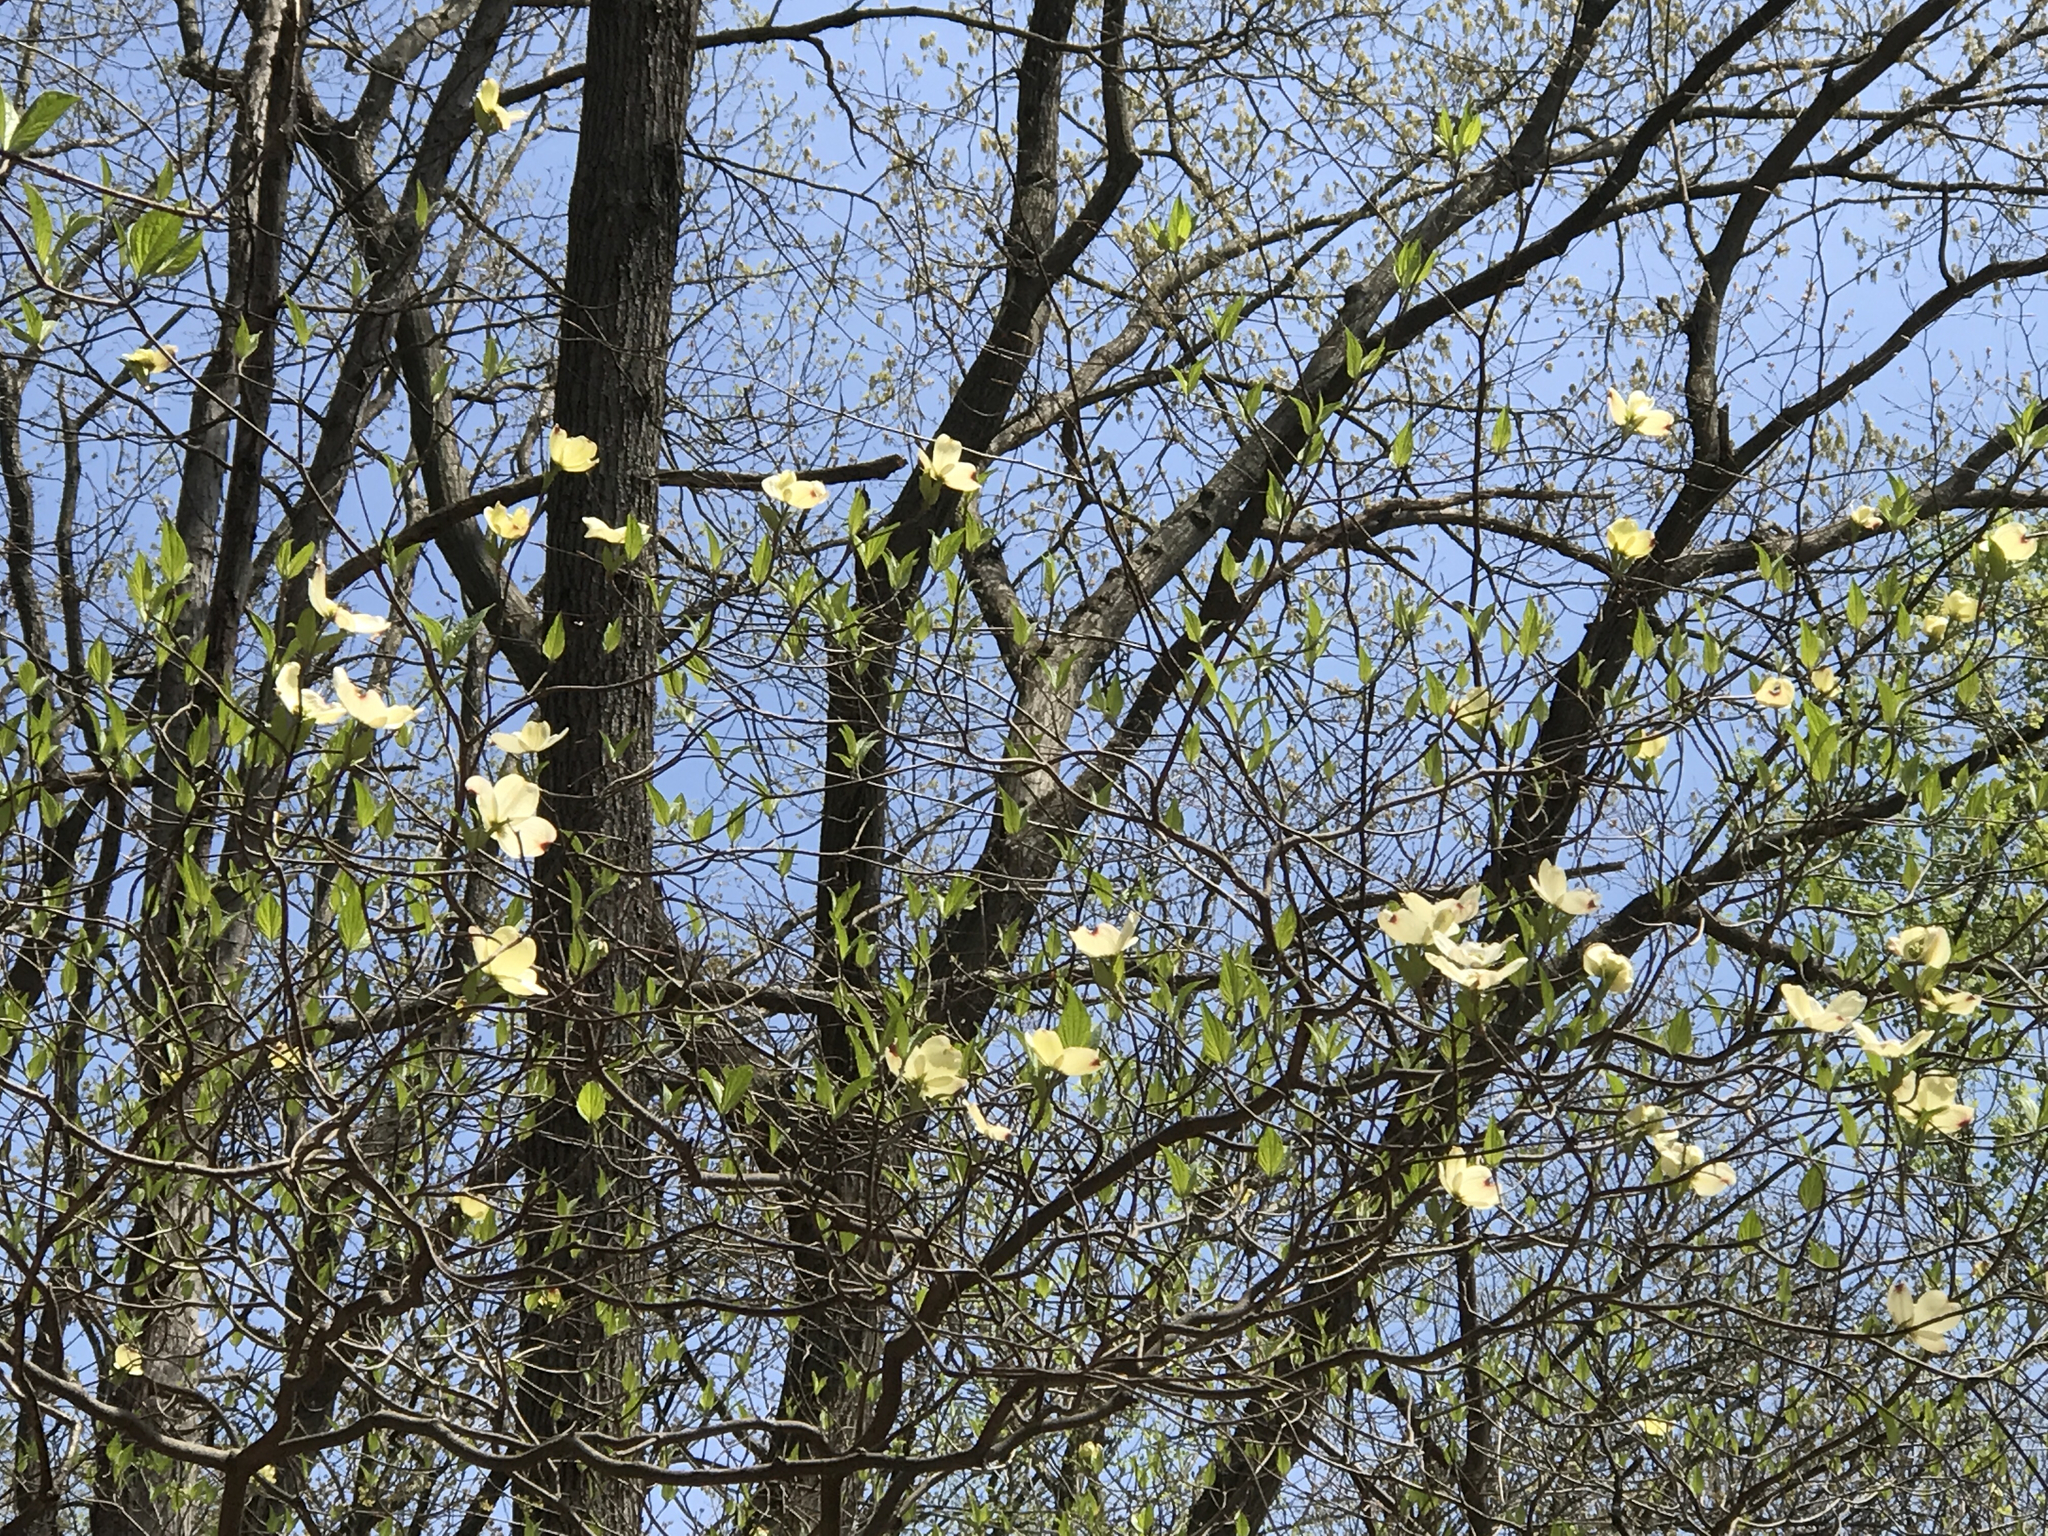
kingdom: Plantae
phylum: Tracheophyta
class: Magnoliopsida
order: Cornales
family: Cornaceae
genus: Cornus
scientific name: Cornus florida
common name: Flowering dogwood
